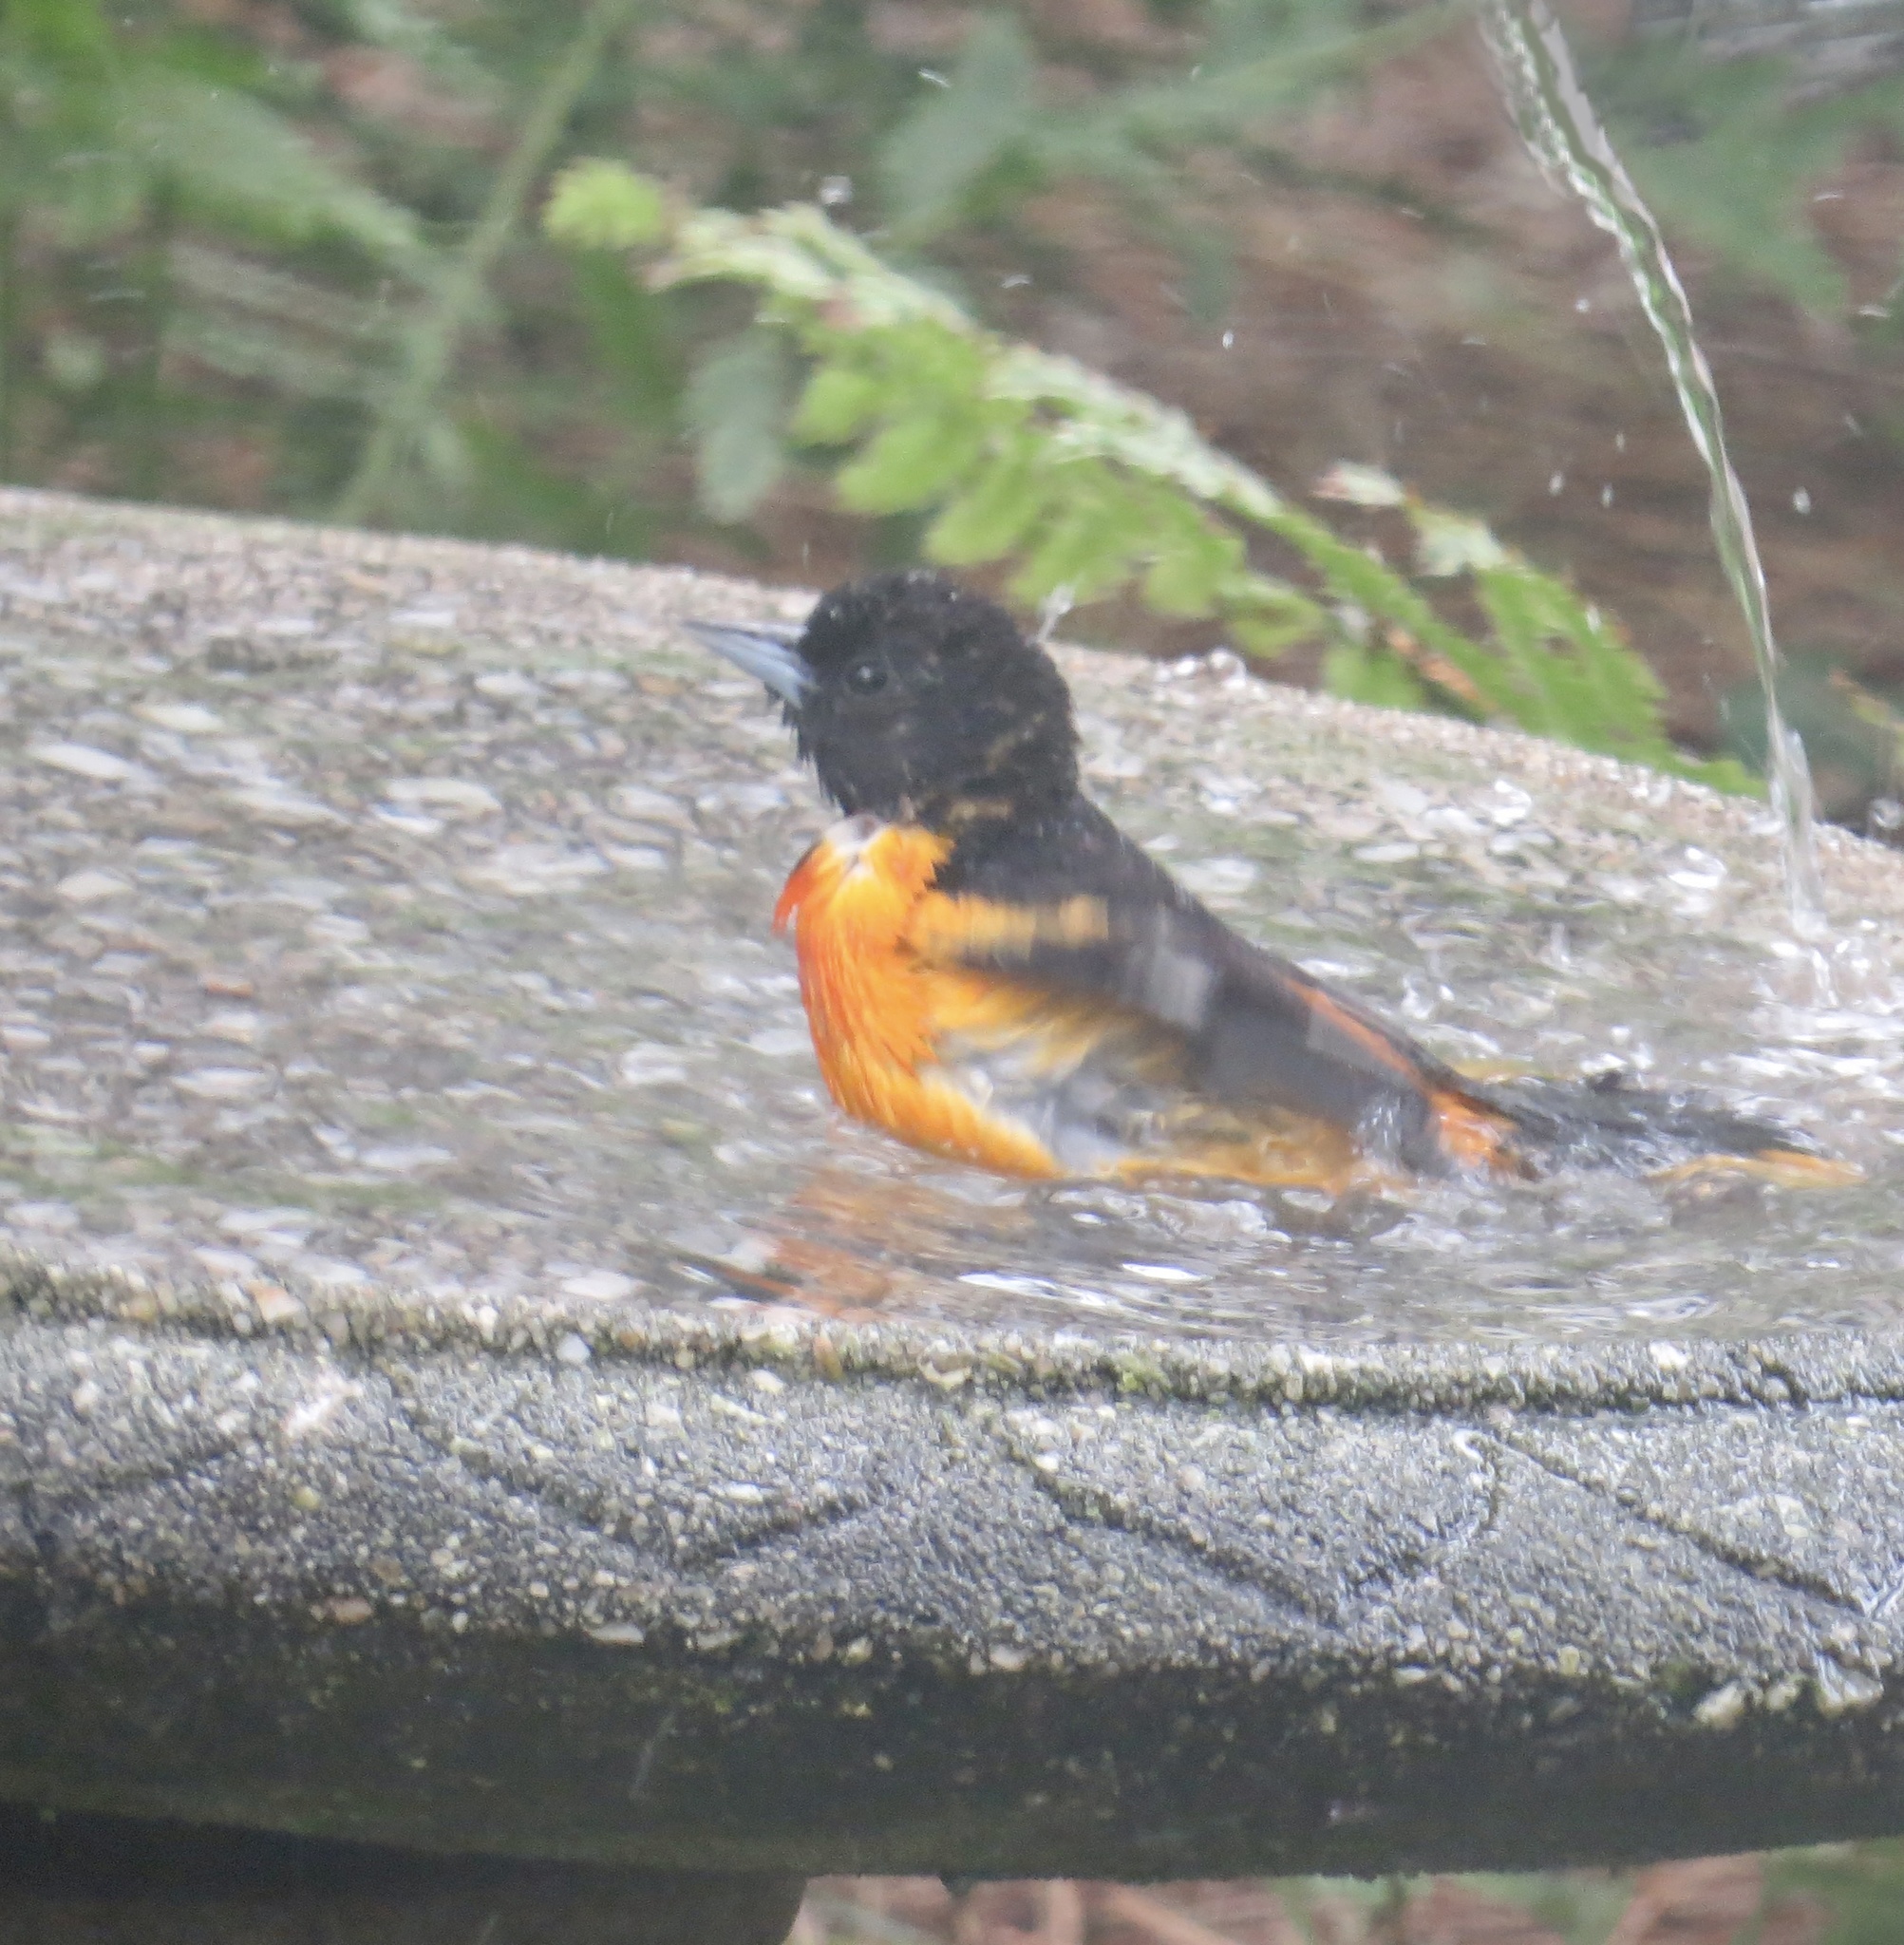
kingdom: Animalia
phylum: Chordata
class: Aves
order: Passeriformes
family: Icteridae
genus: Icterus
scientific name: Icterus galbula
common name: Baltimore oriole
